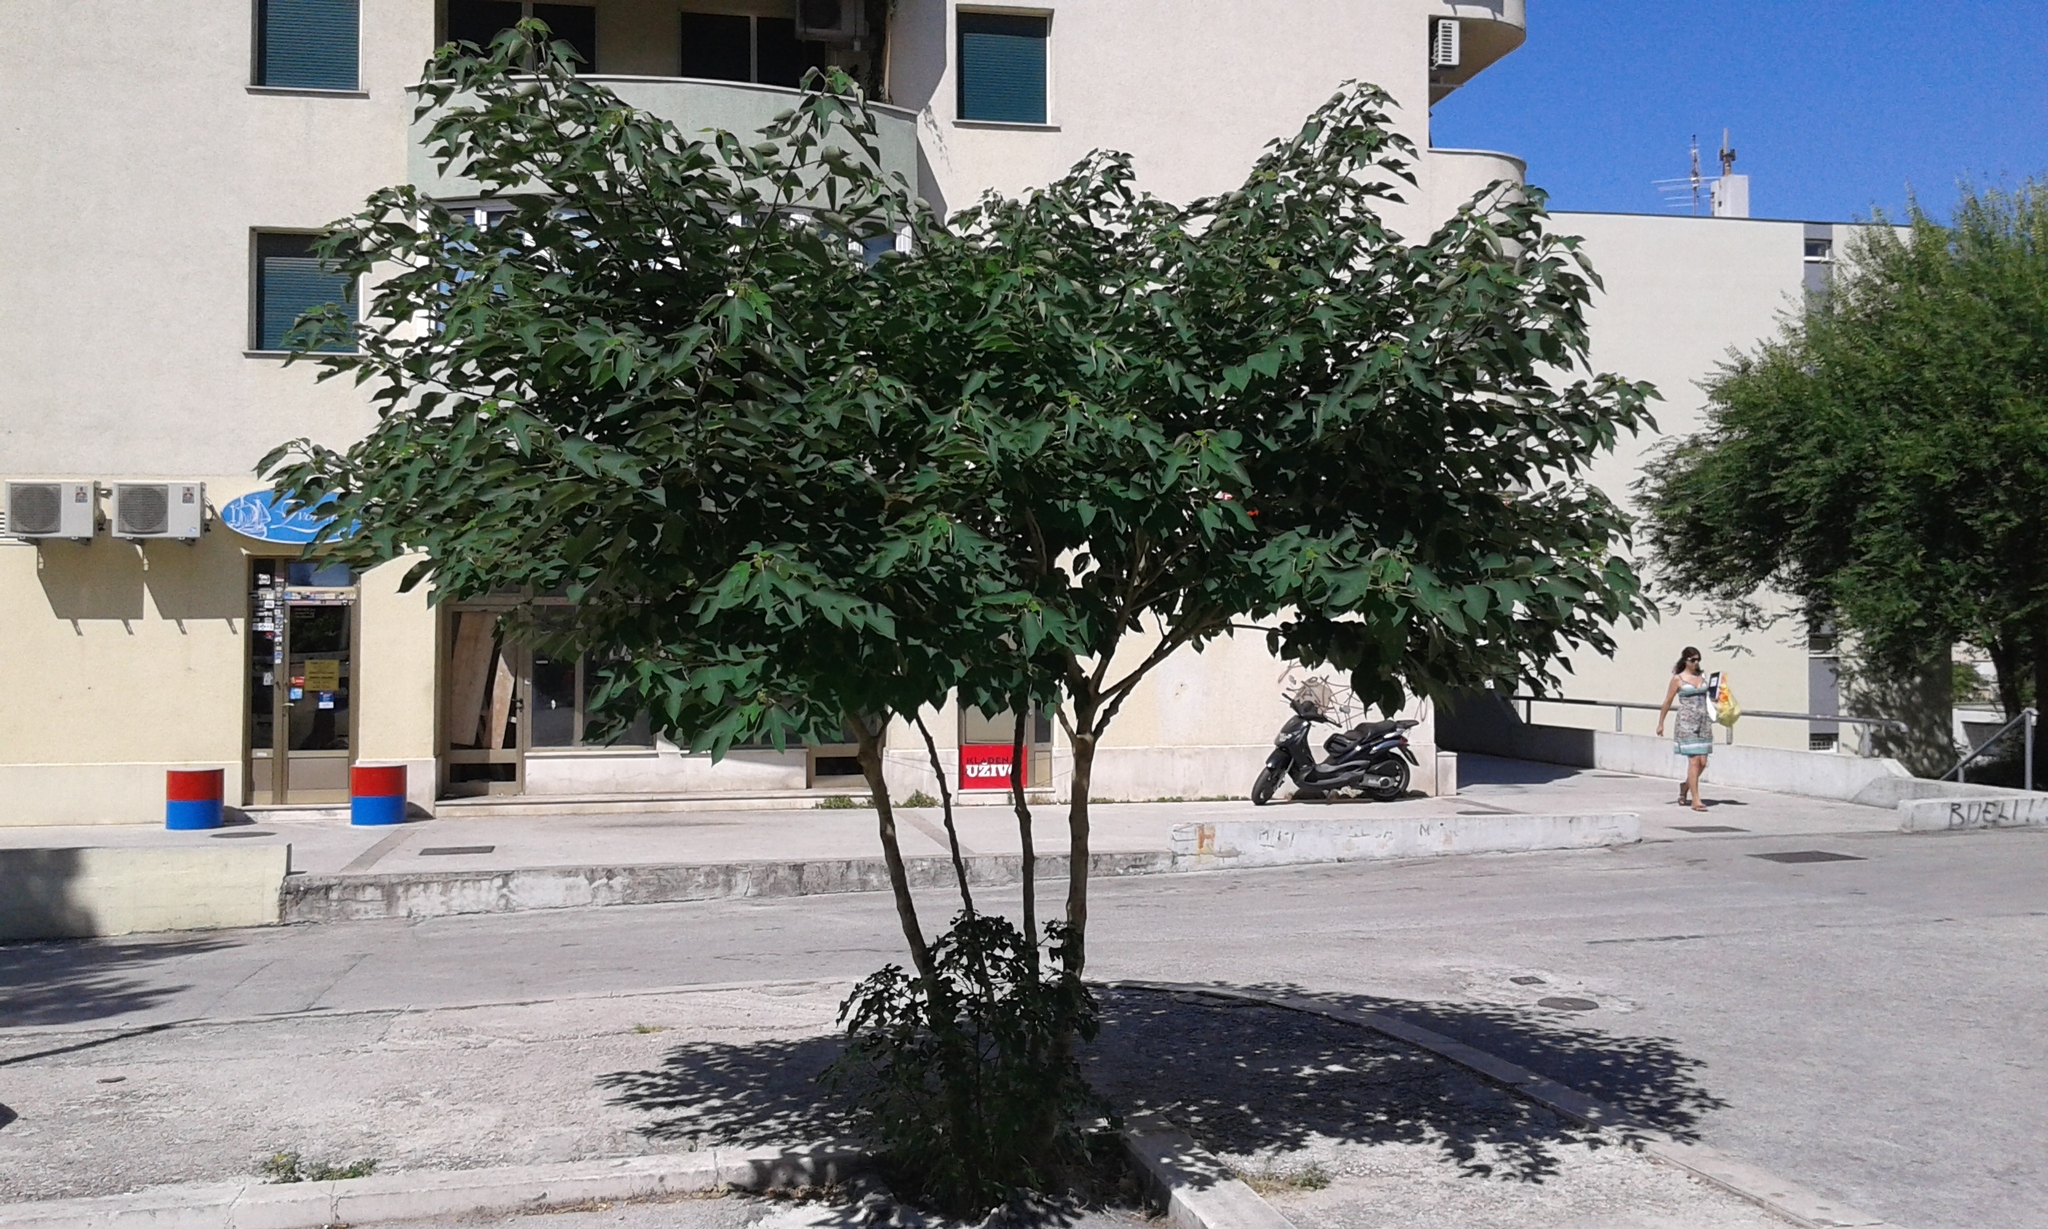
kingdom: Plantae
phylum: Tracheophyta
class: Magnoliopsida
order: Rosales
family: Moraceae
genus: Broussonetia
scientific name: Broussonetia papyrifera
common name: Paper mulberry
